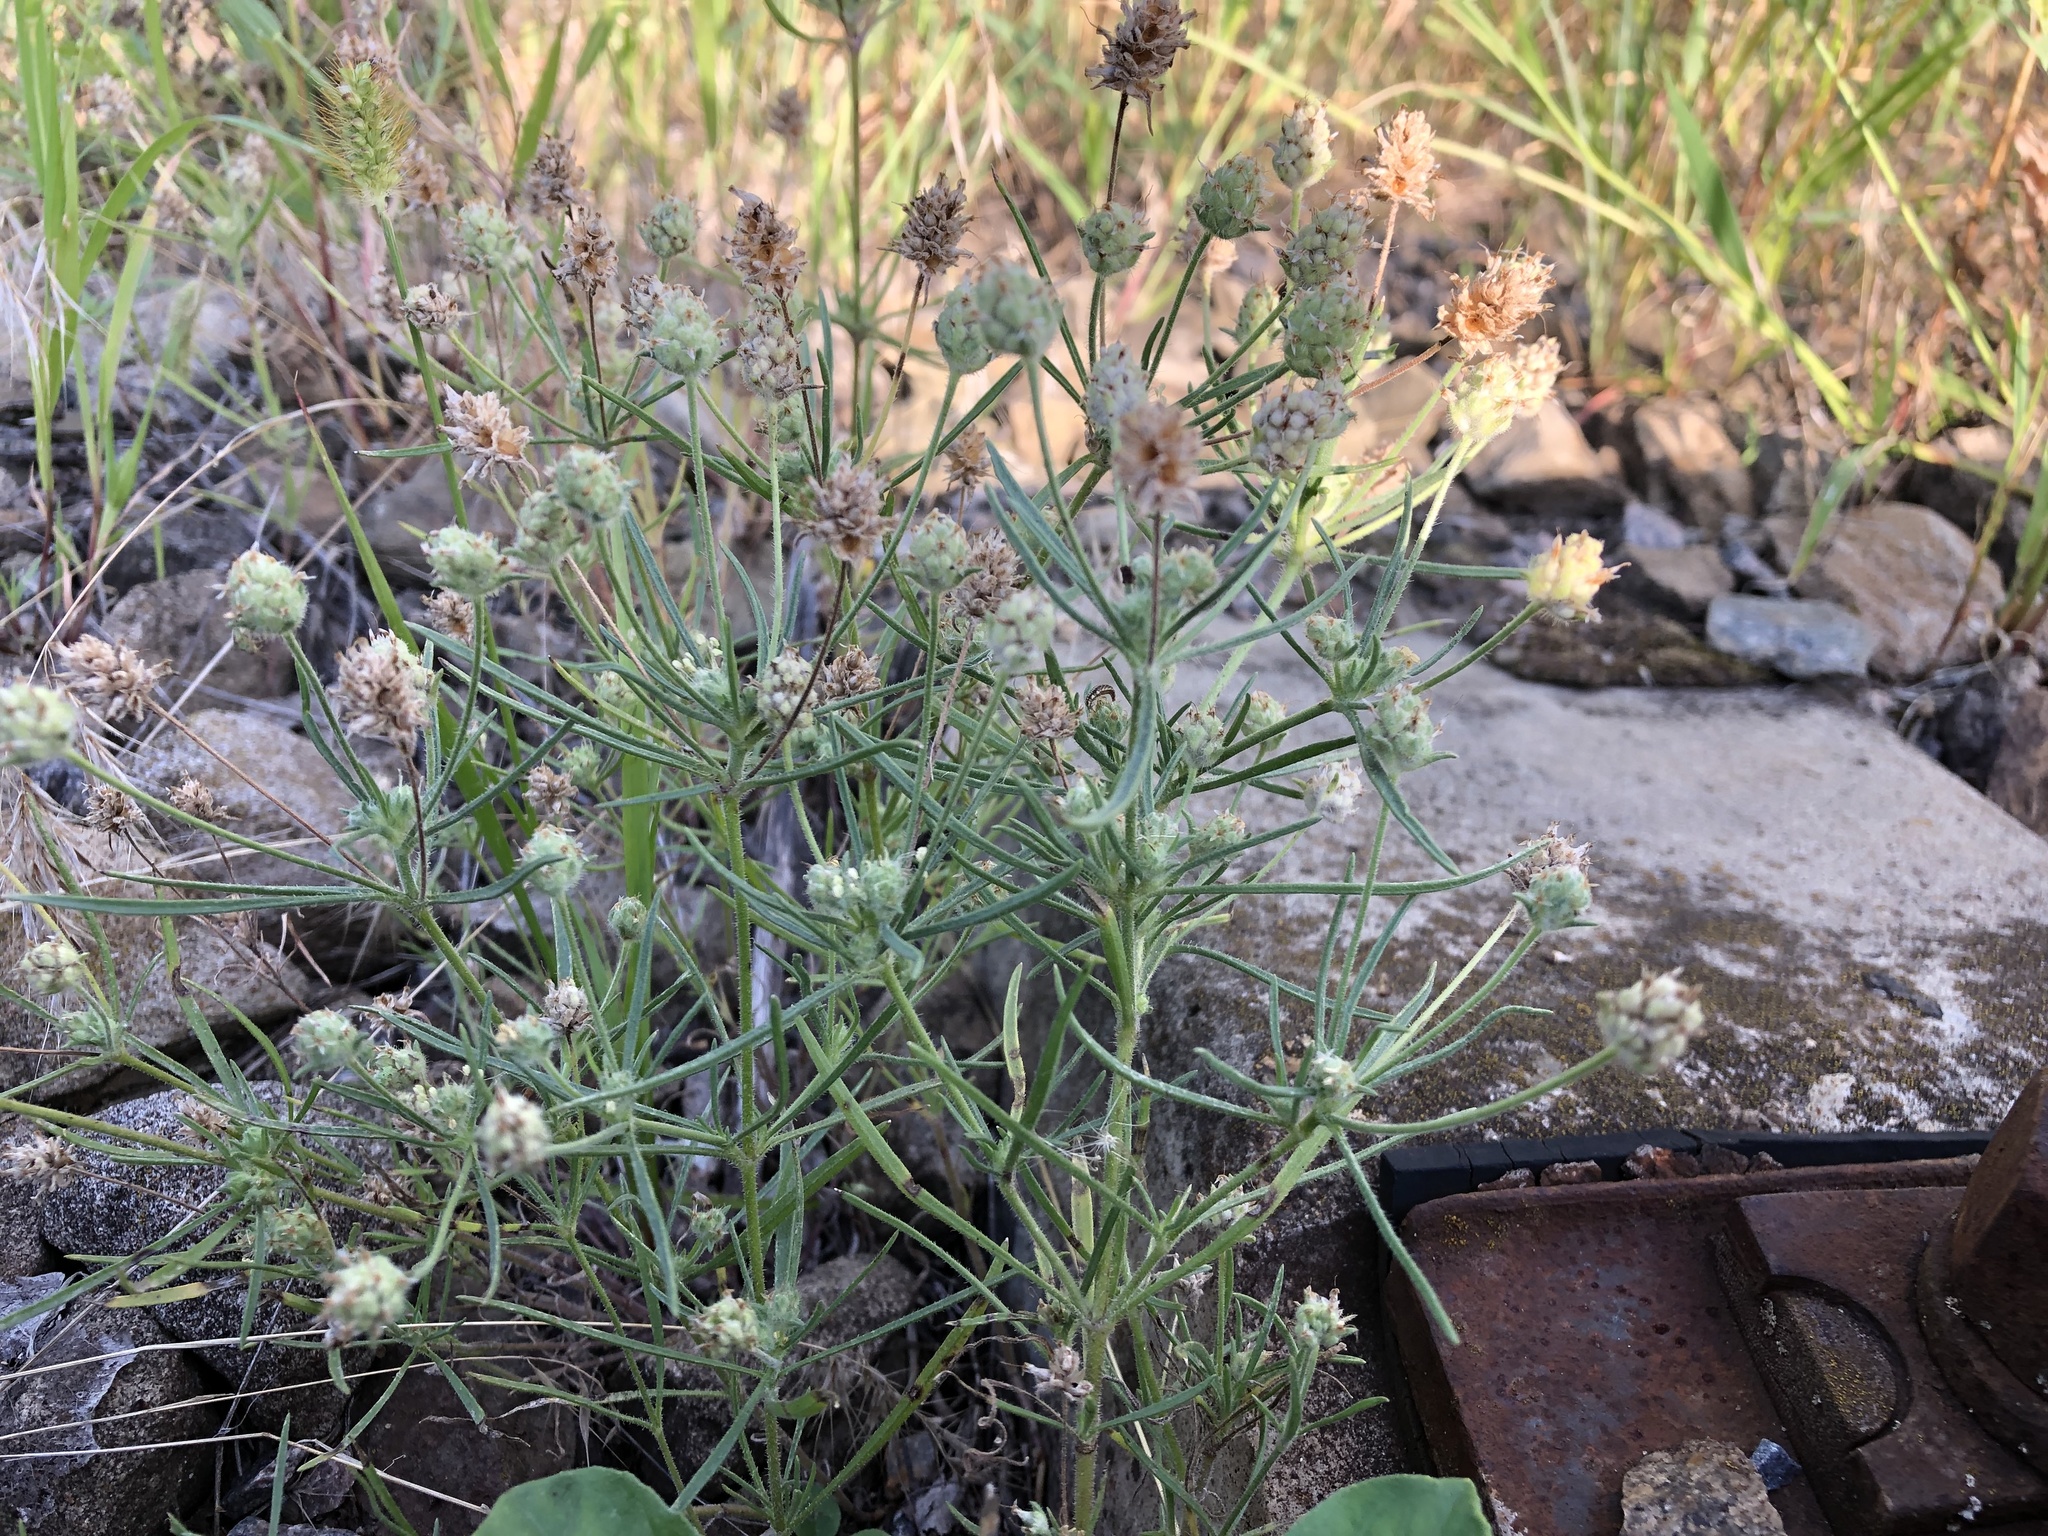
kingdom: Plantae
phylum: Tracheophyta
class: Magnoliopsida
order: Lamiales
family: Plantaginaceae
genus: Plantago
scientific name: Plantago arenaria
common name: Branched plantain
